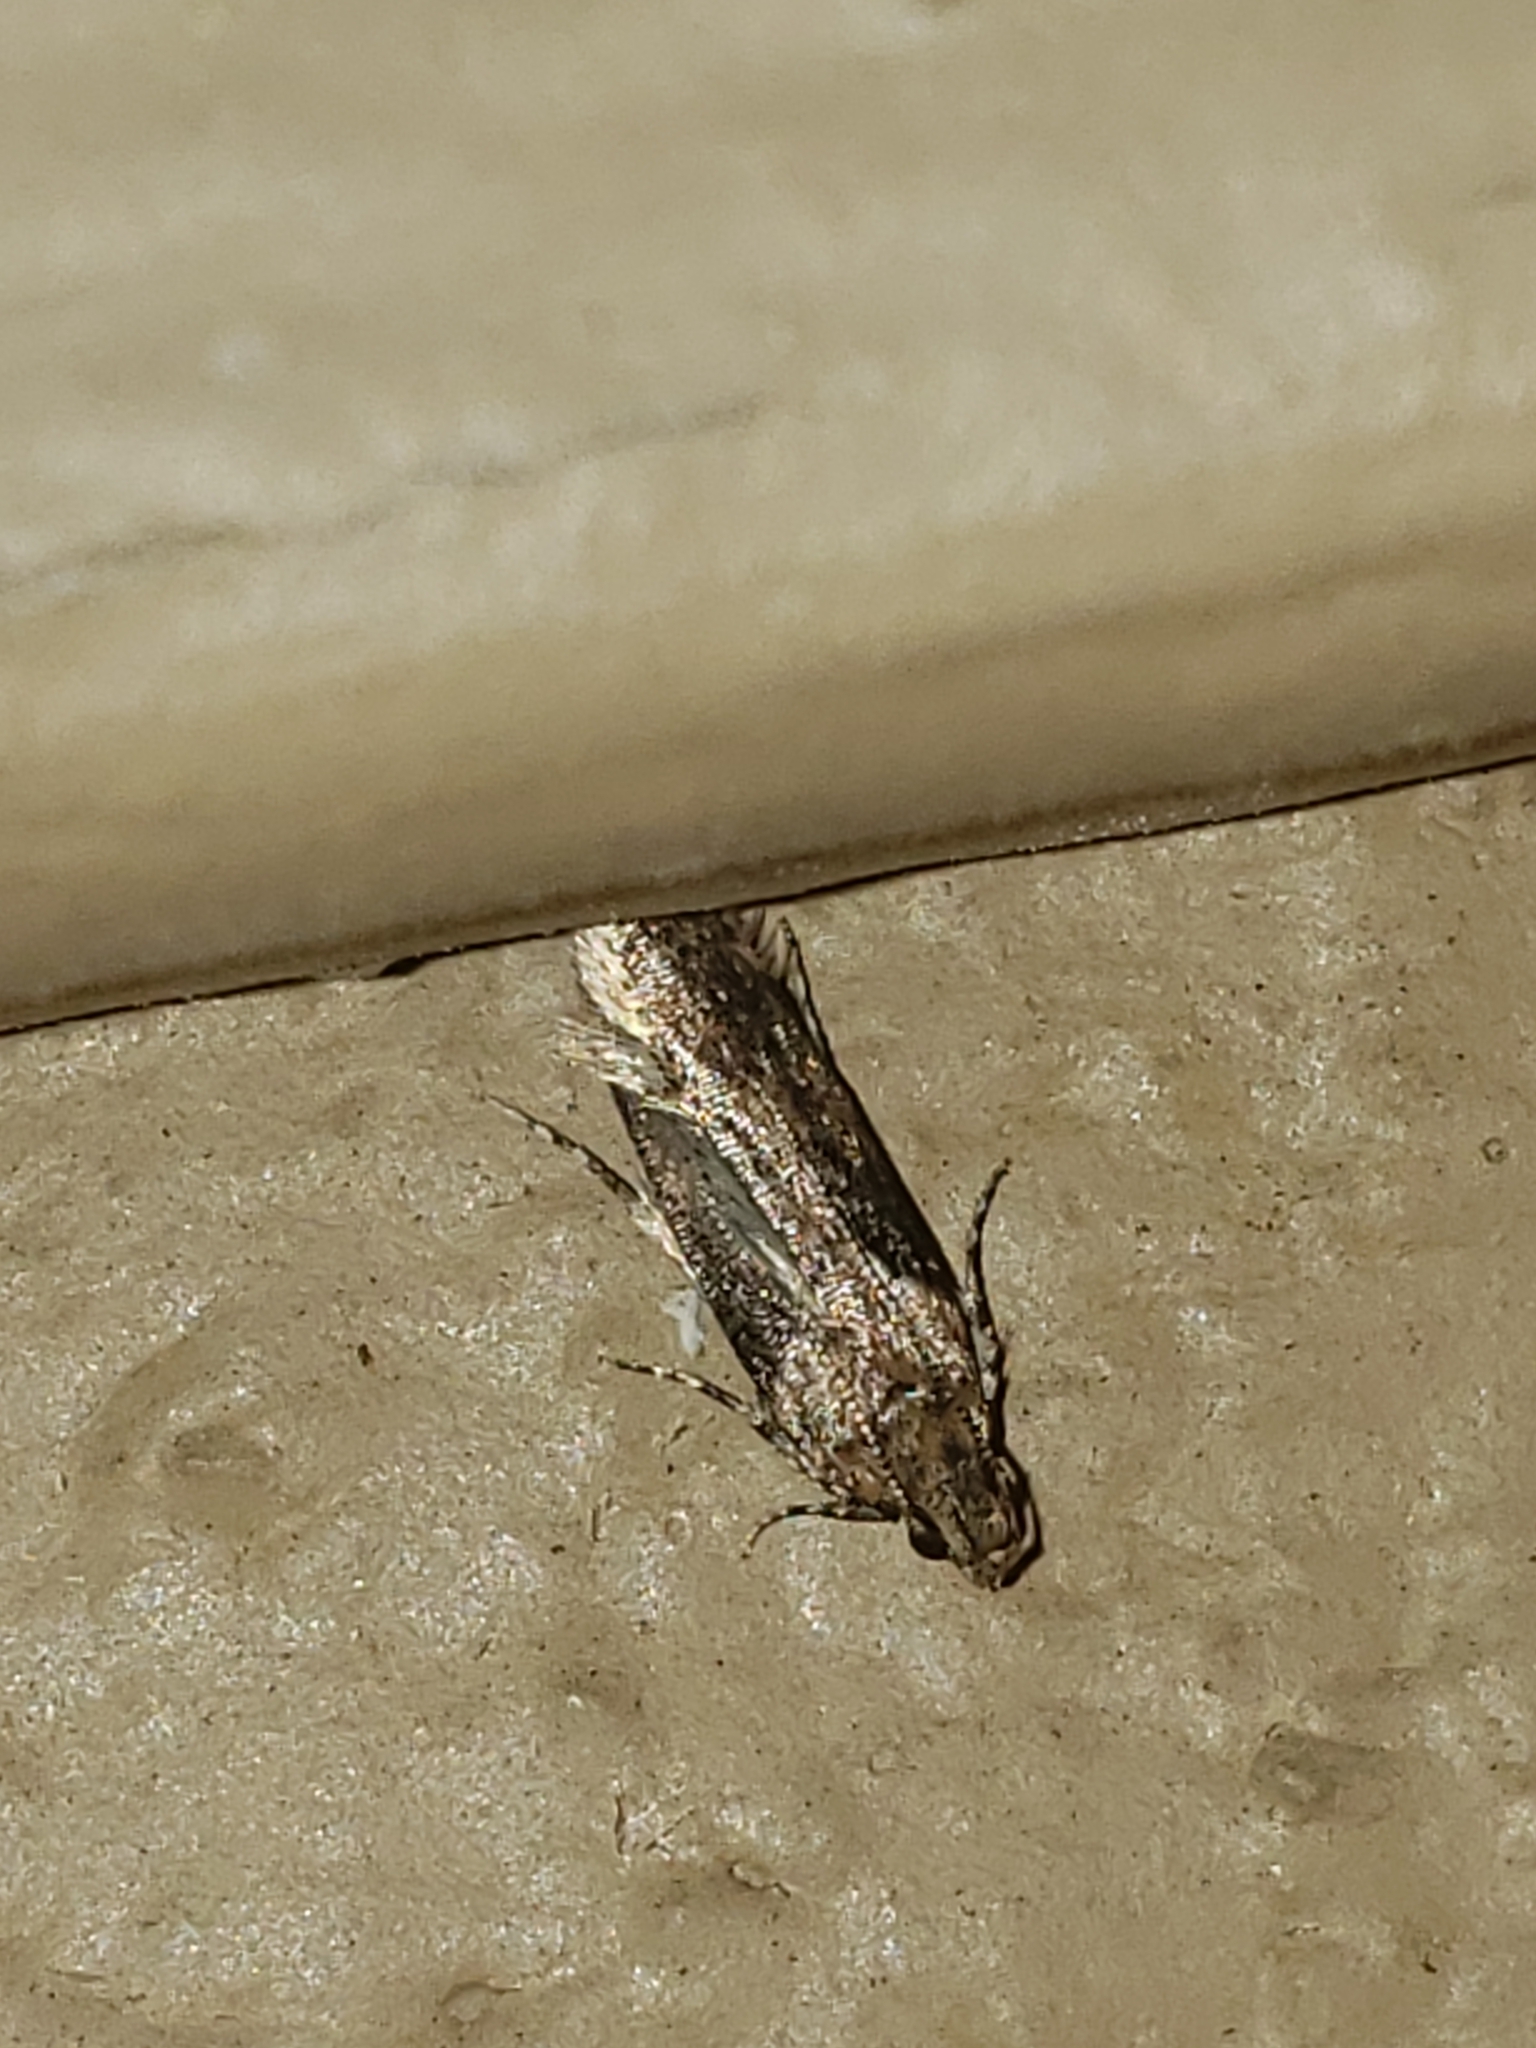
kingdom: Animalia
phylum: Arthropoda
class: Insecta
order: Lepidoptera
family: Gelechiidae
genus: Chionodes
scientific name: Chionodes mediofuscella
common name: Black-smudged chionodes moth
